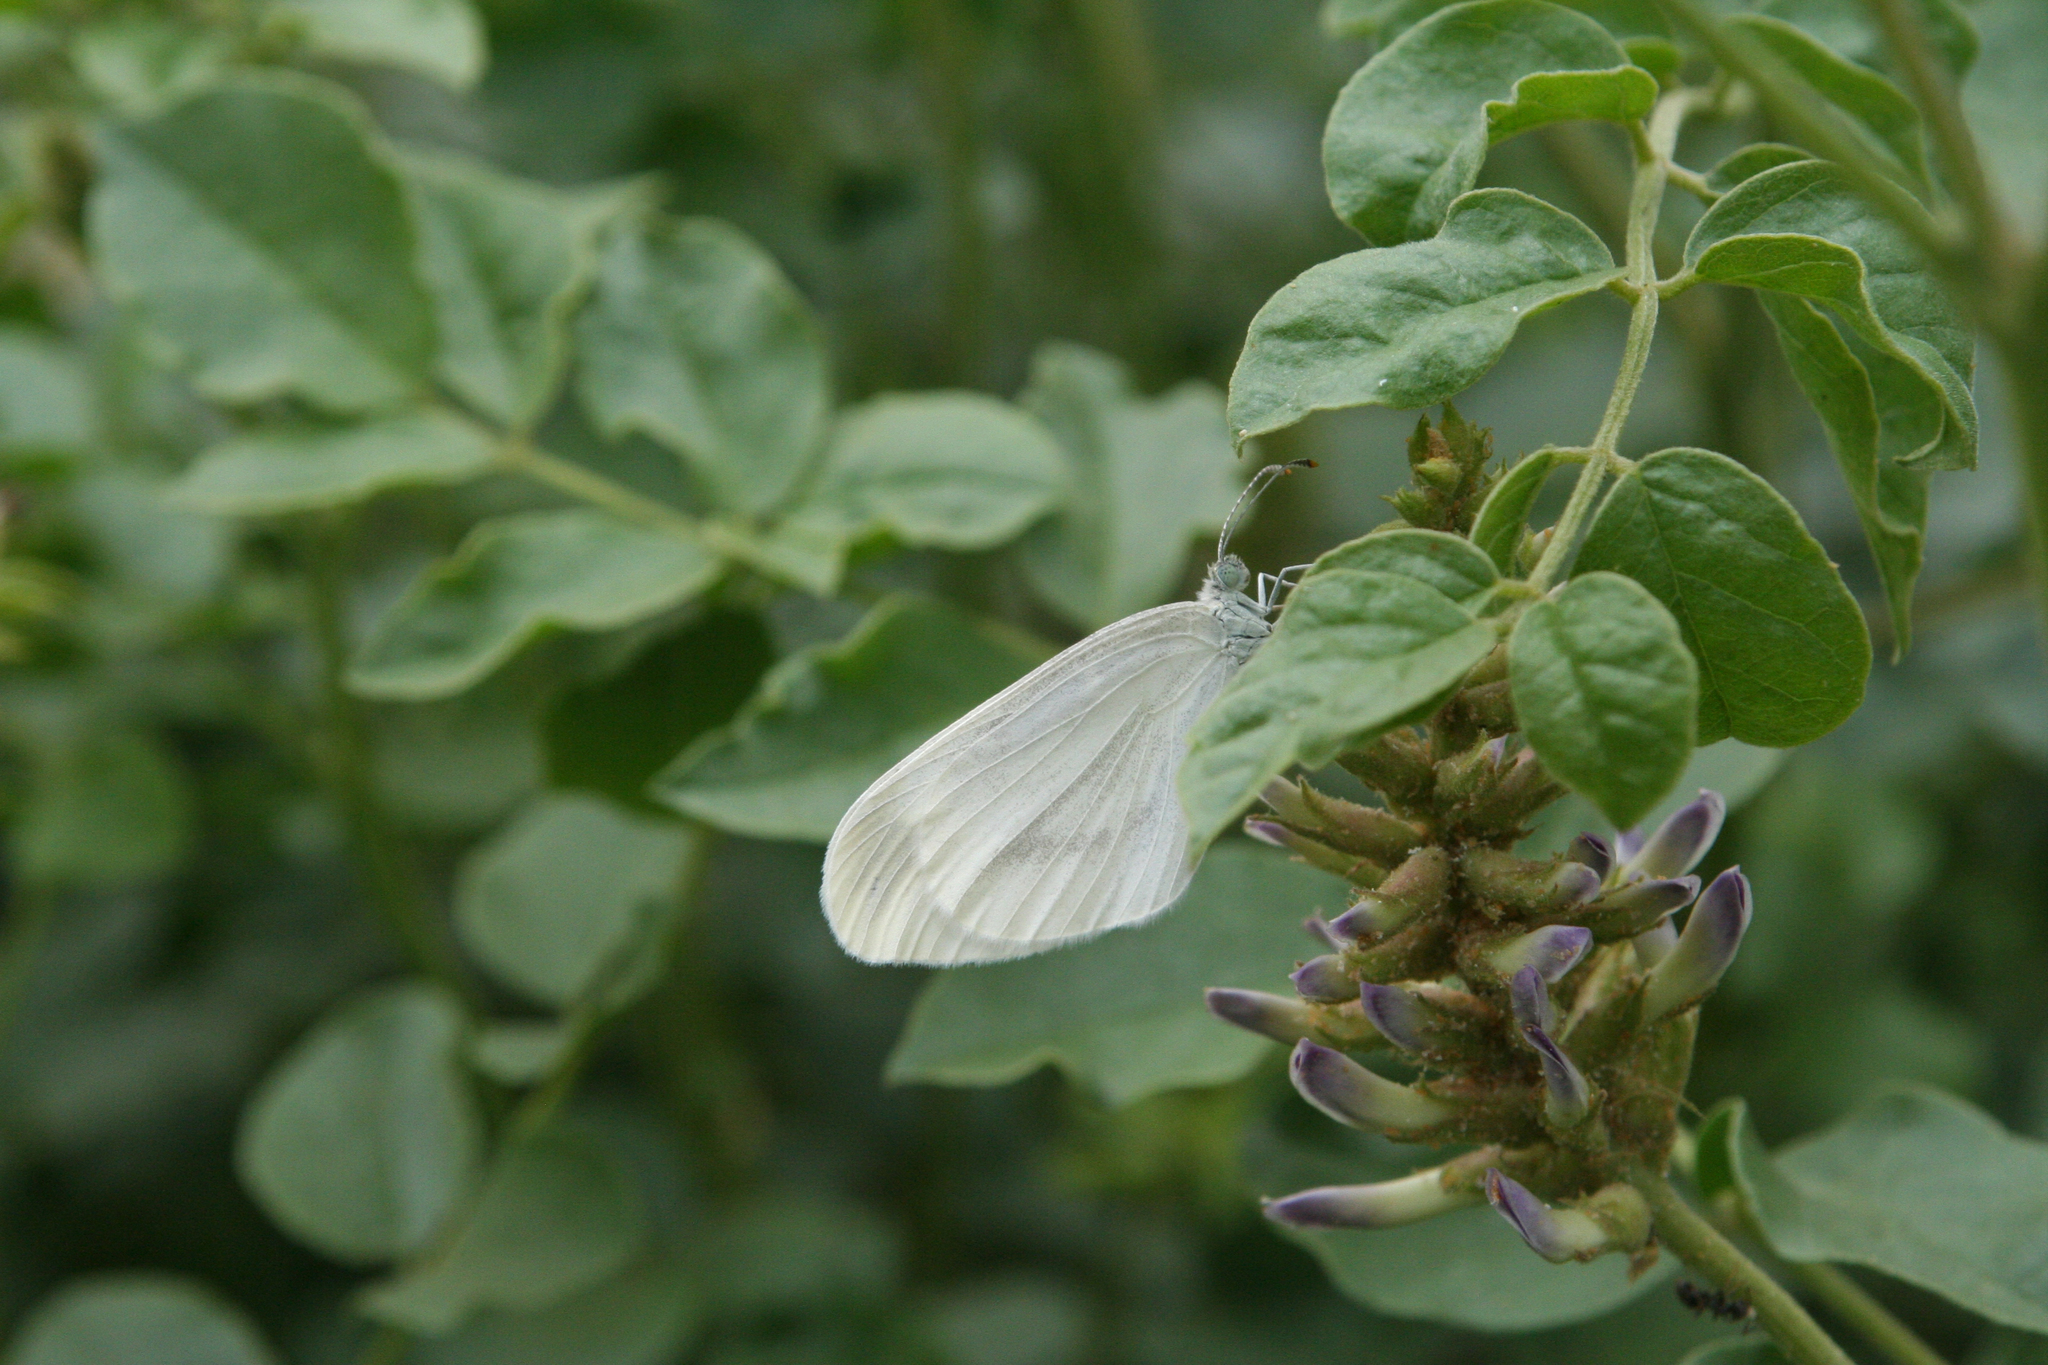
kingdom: Animalia
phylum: Arthropoda
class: Insecta
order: Lepidoptera
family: Pieridae
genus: Leptidea
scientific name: Leptidea morsei
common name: Fenton's wood white
